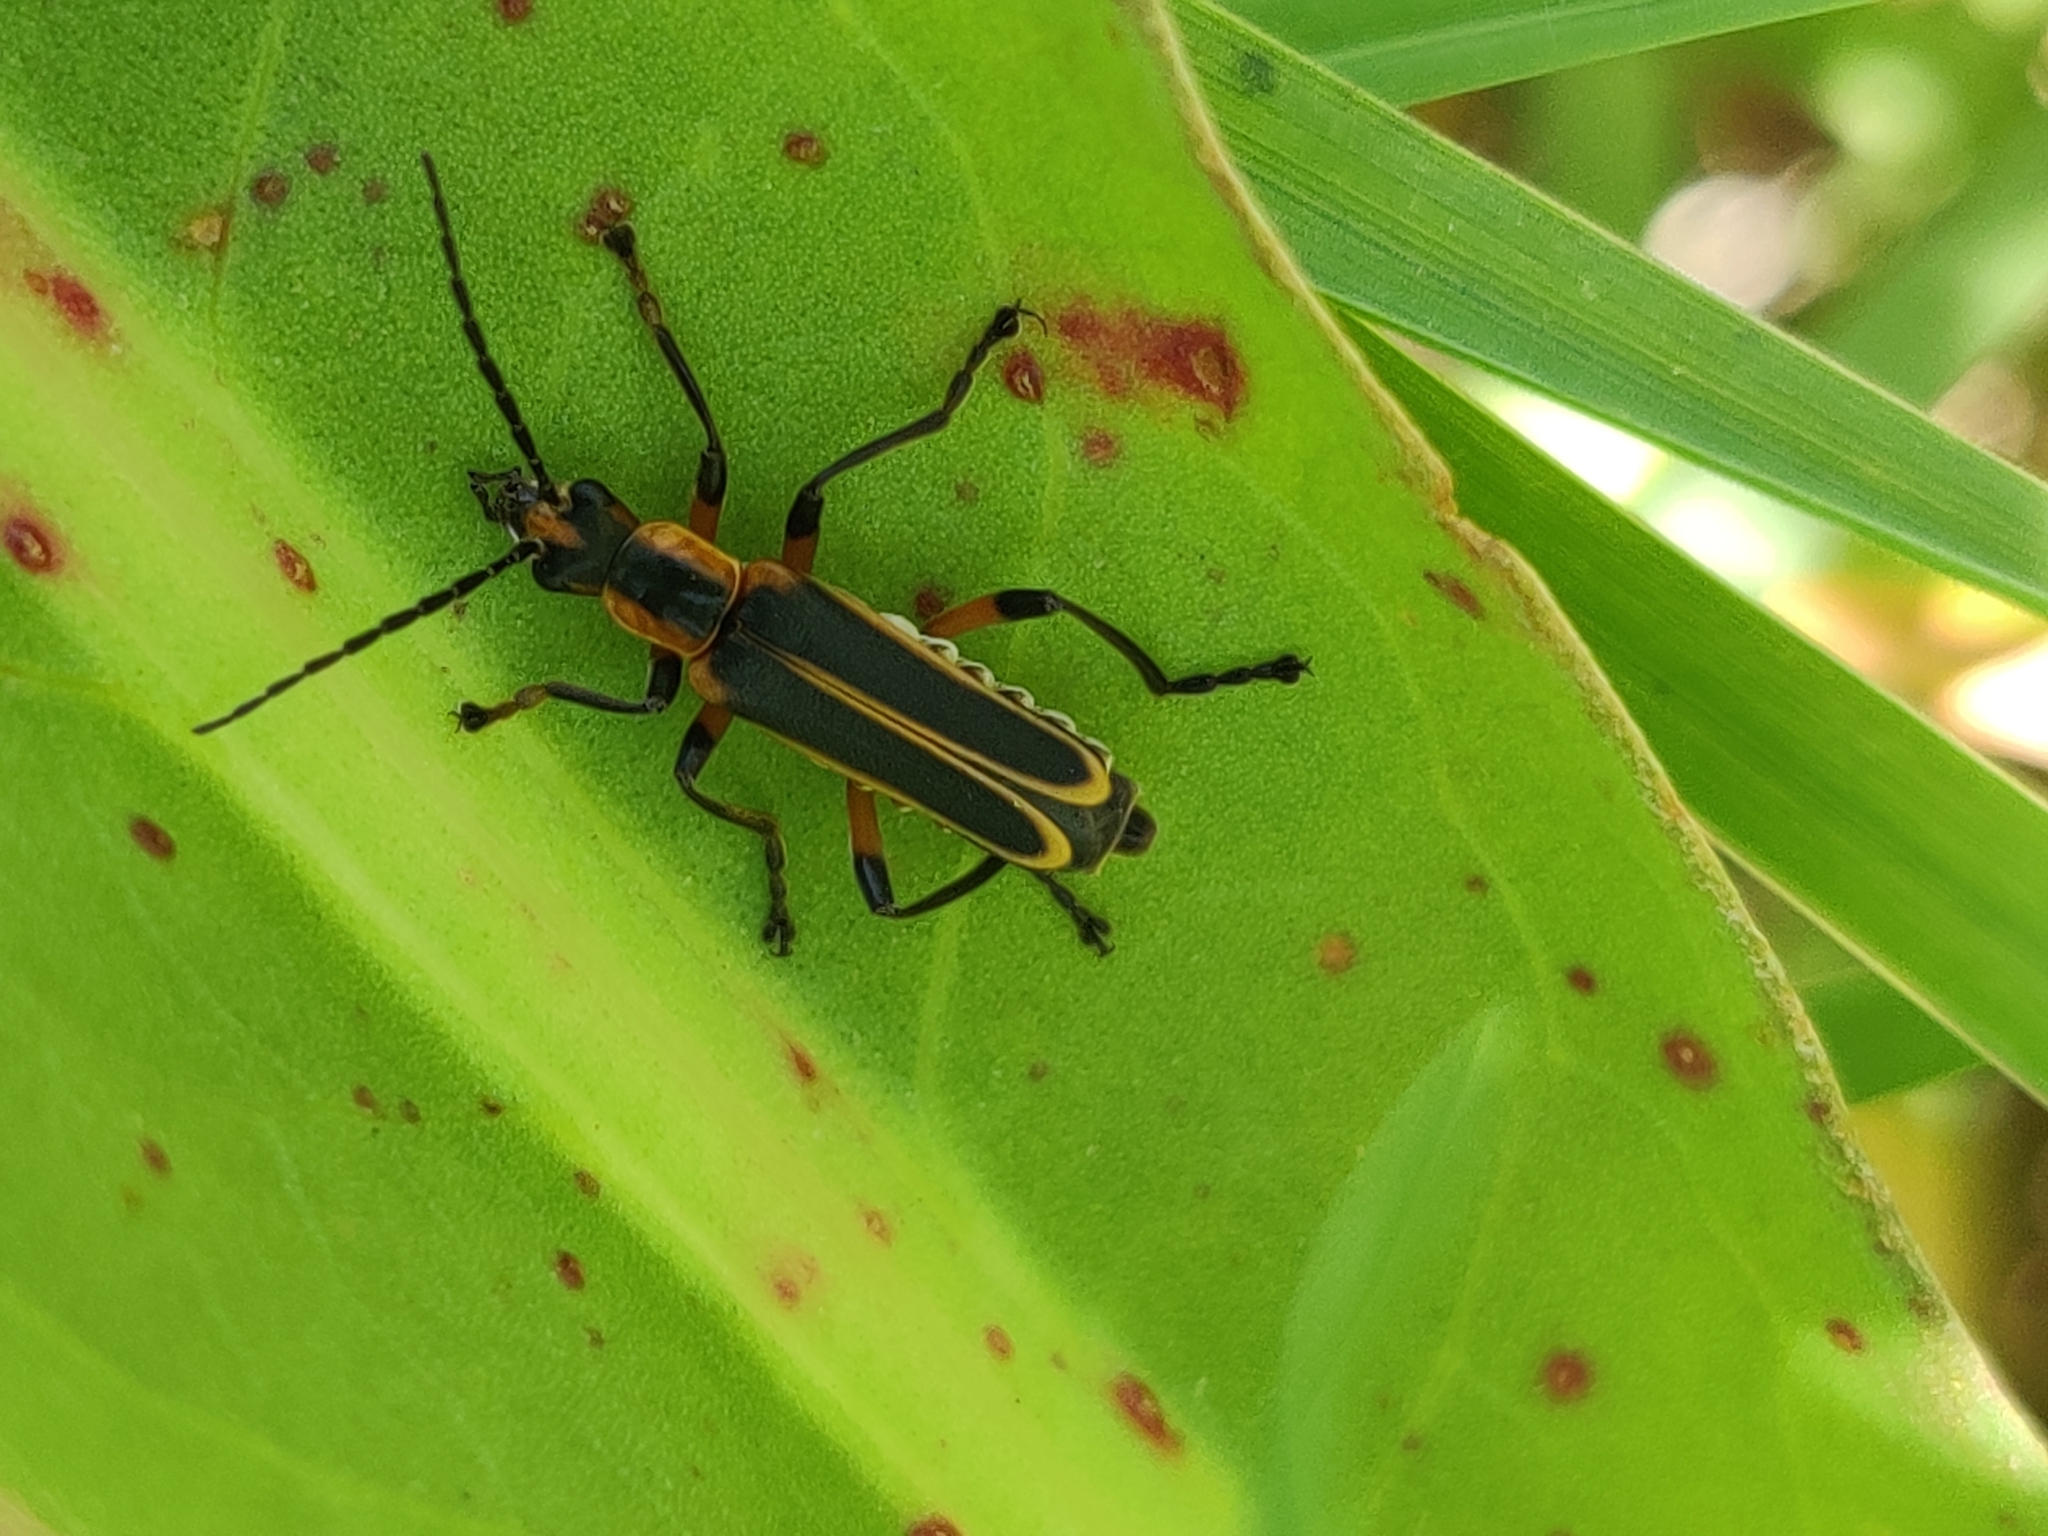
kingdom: Animalia
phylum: Arthropoda
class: Insecta
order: Coleoptera
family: Cantharidae
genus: Chauliognathus
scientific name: Chauliognathus marginatus
